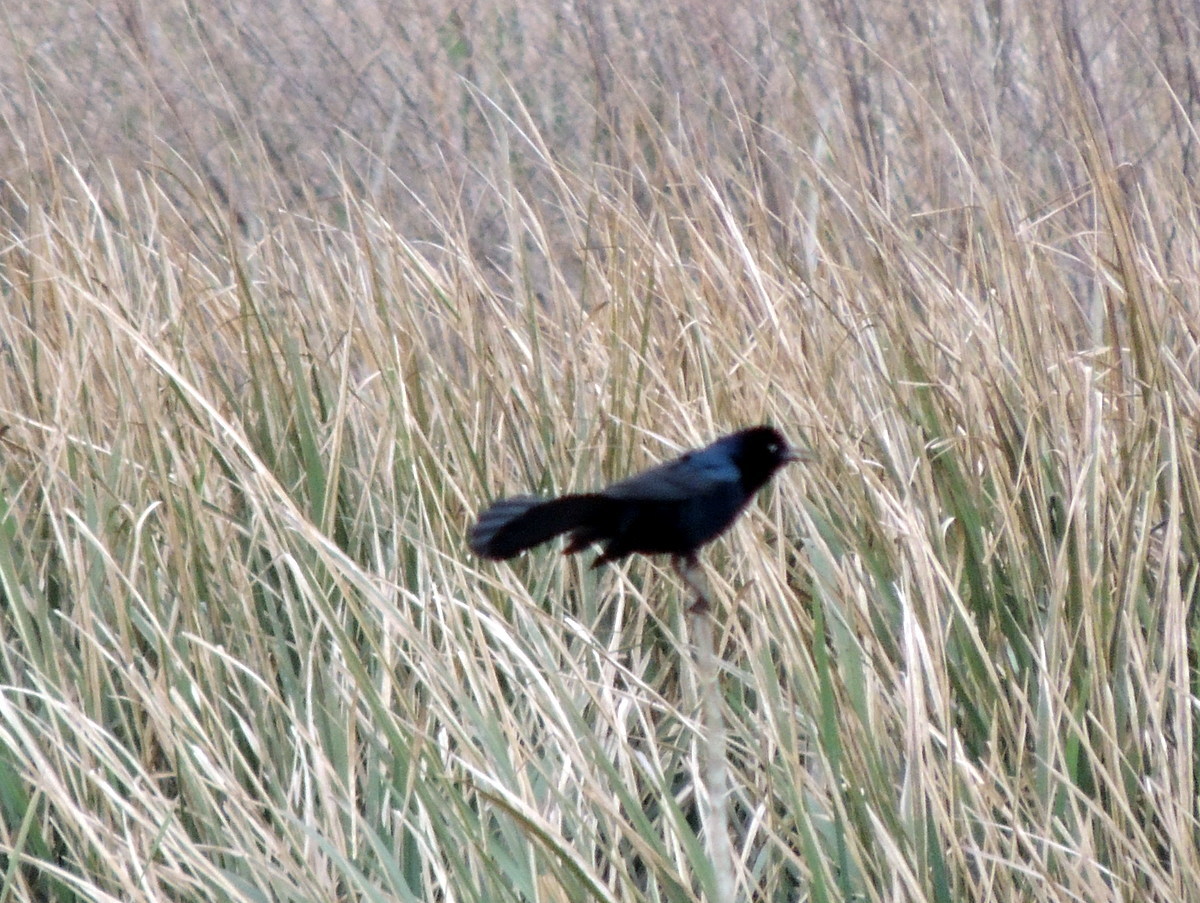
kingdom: Animalia
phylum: Chordata
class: Aves
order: Passeriformes
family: Icteridae
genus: Quiscalus
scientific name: Quiscalus major
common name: Boat-tailed grackle
